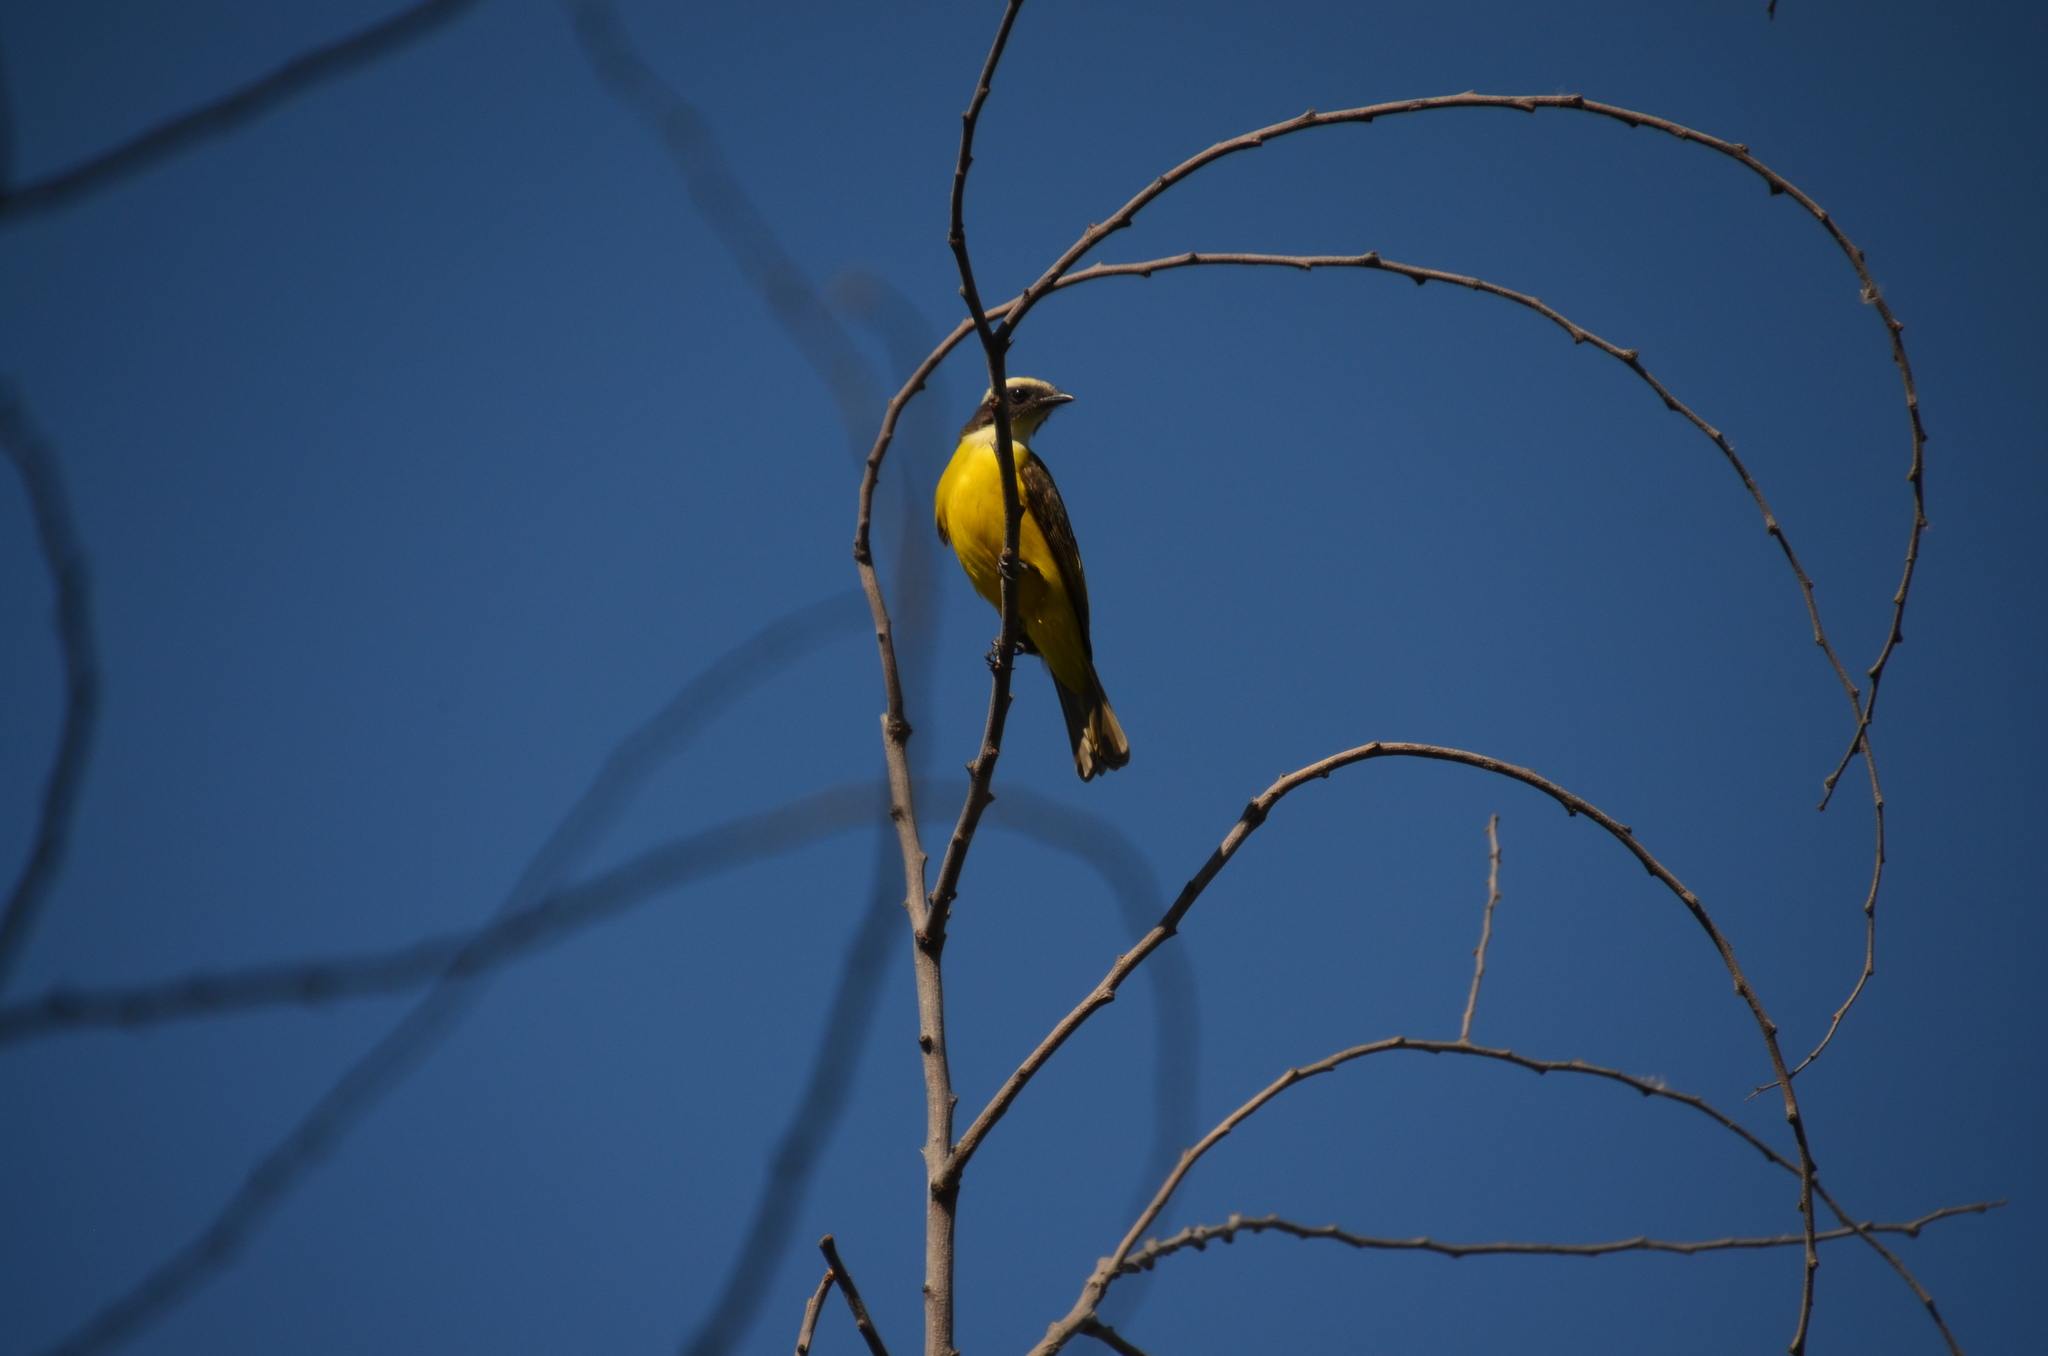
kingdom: Animalia
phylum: Chordata
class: Aves
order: Passeriformes
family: Tyrannidae
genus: Myiozetetes
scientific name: Myiozetetes similis
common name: Social flycatcher
